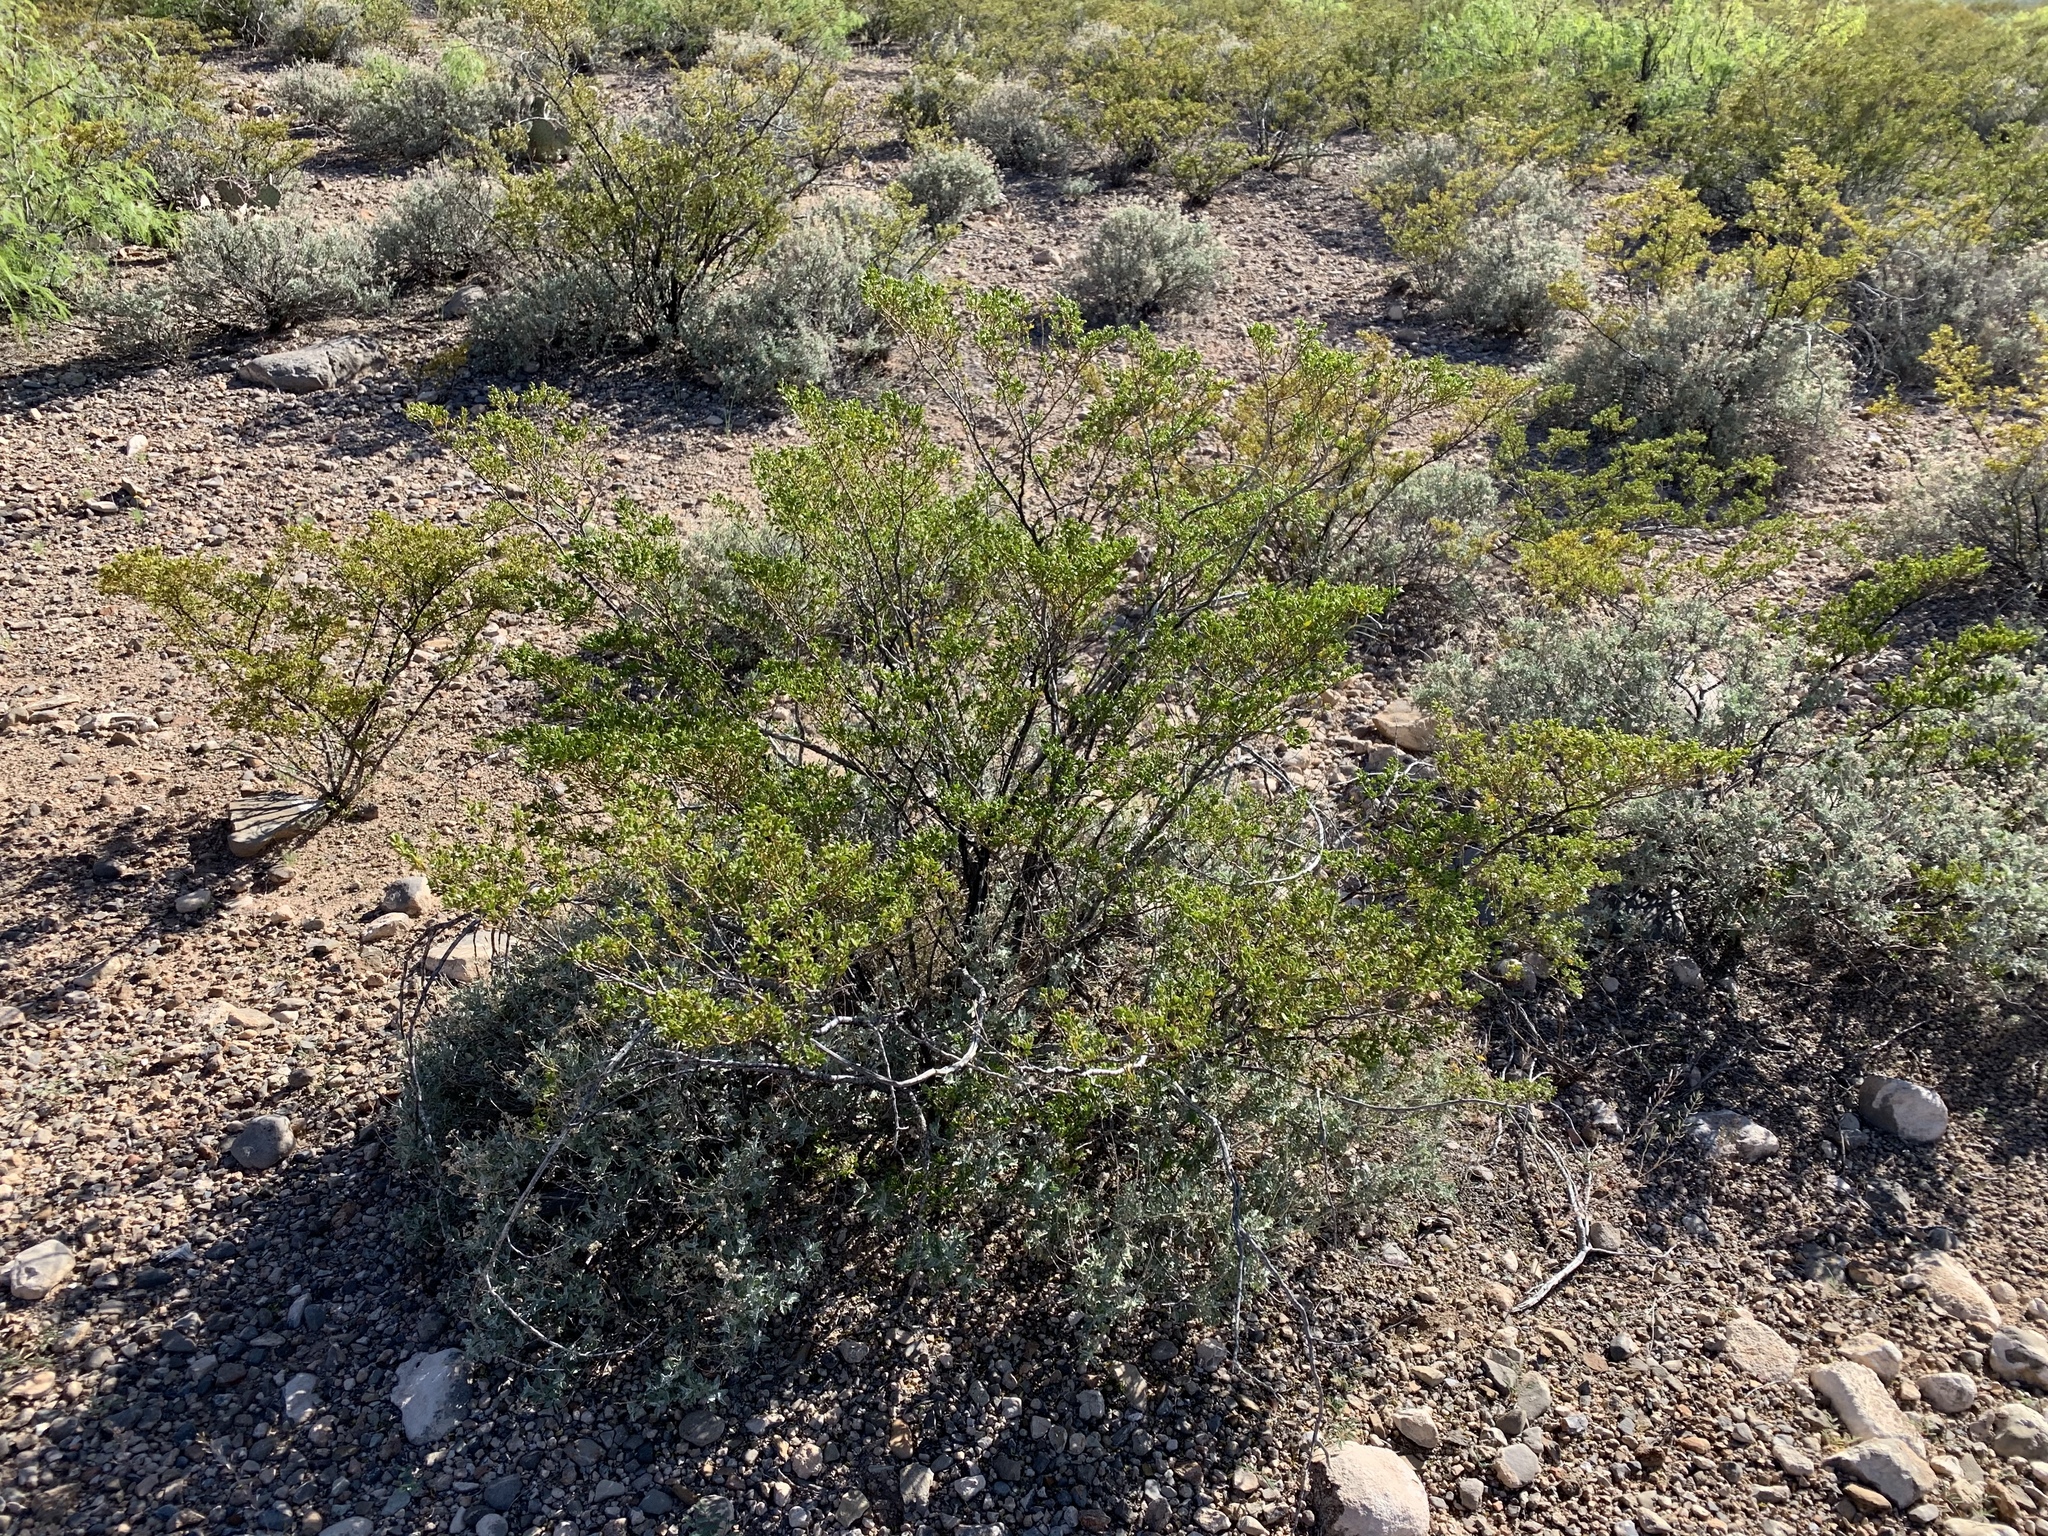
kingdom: Plantae
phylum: Tracheophyta
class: Magnoliopsida
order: Zygophyllales
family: Zygophyllaceae
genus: Larrea
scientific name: Larrea tridentata
